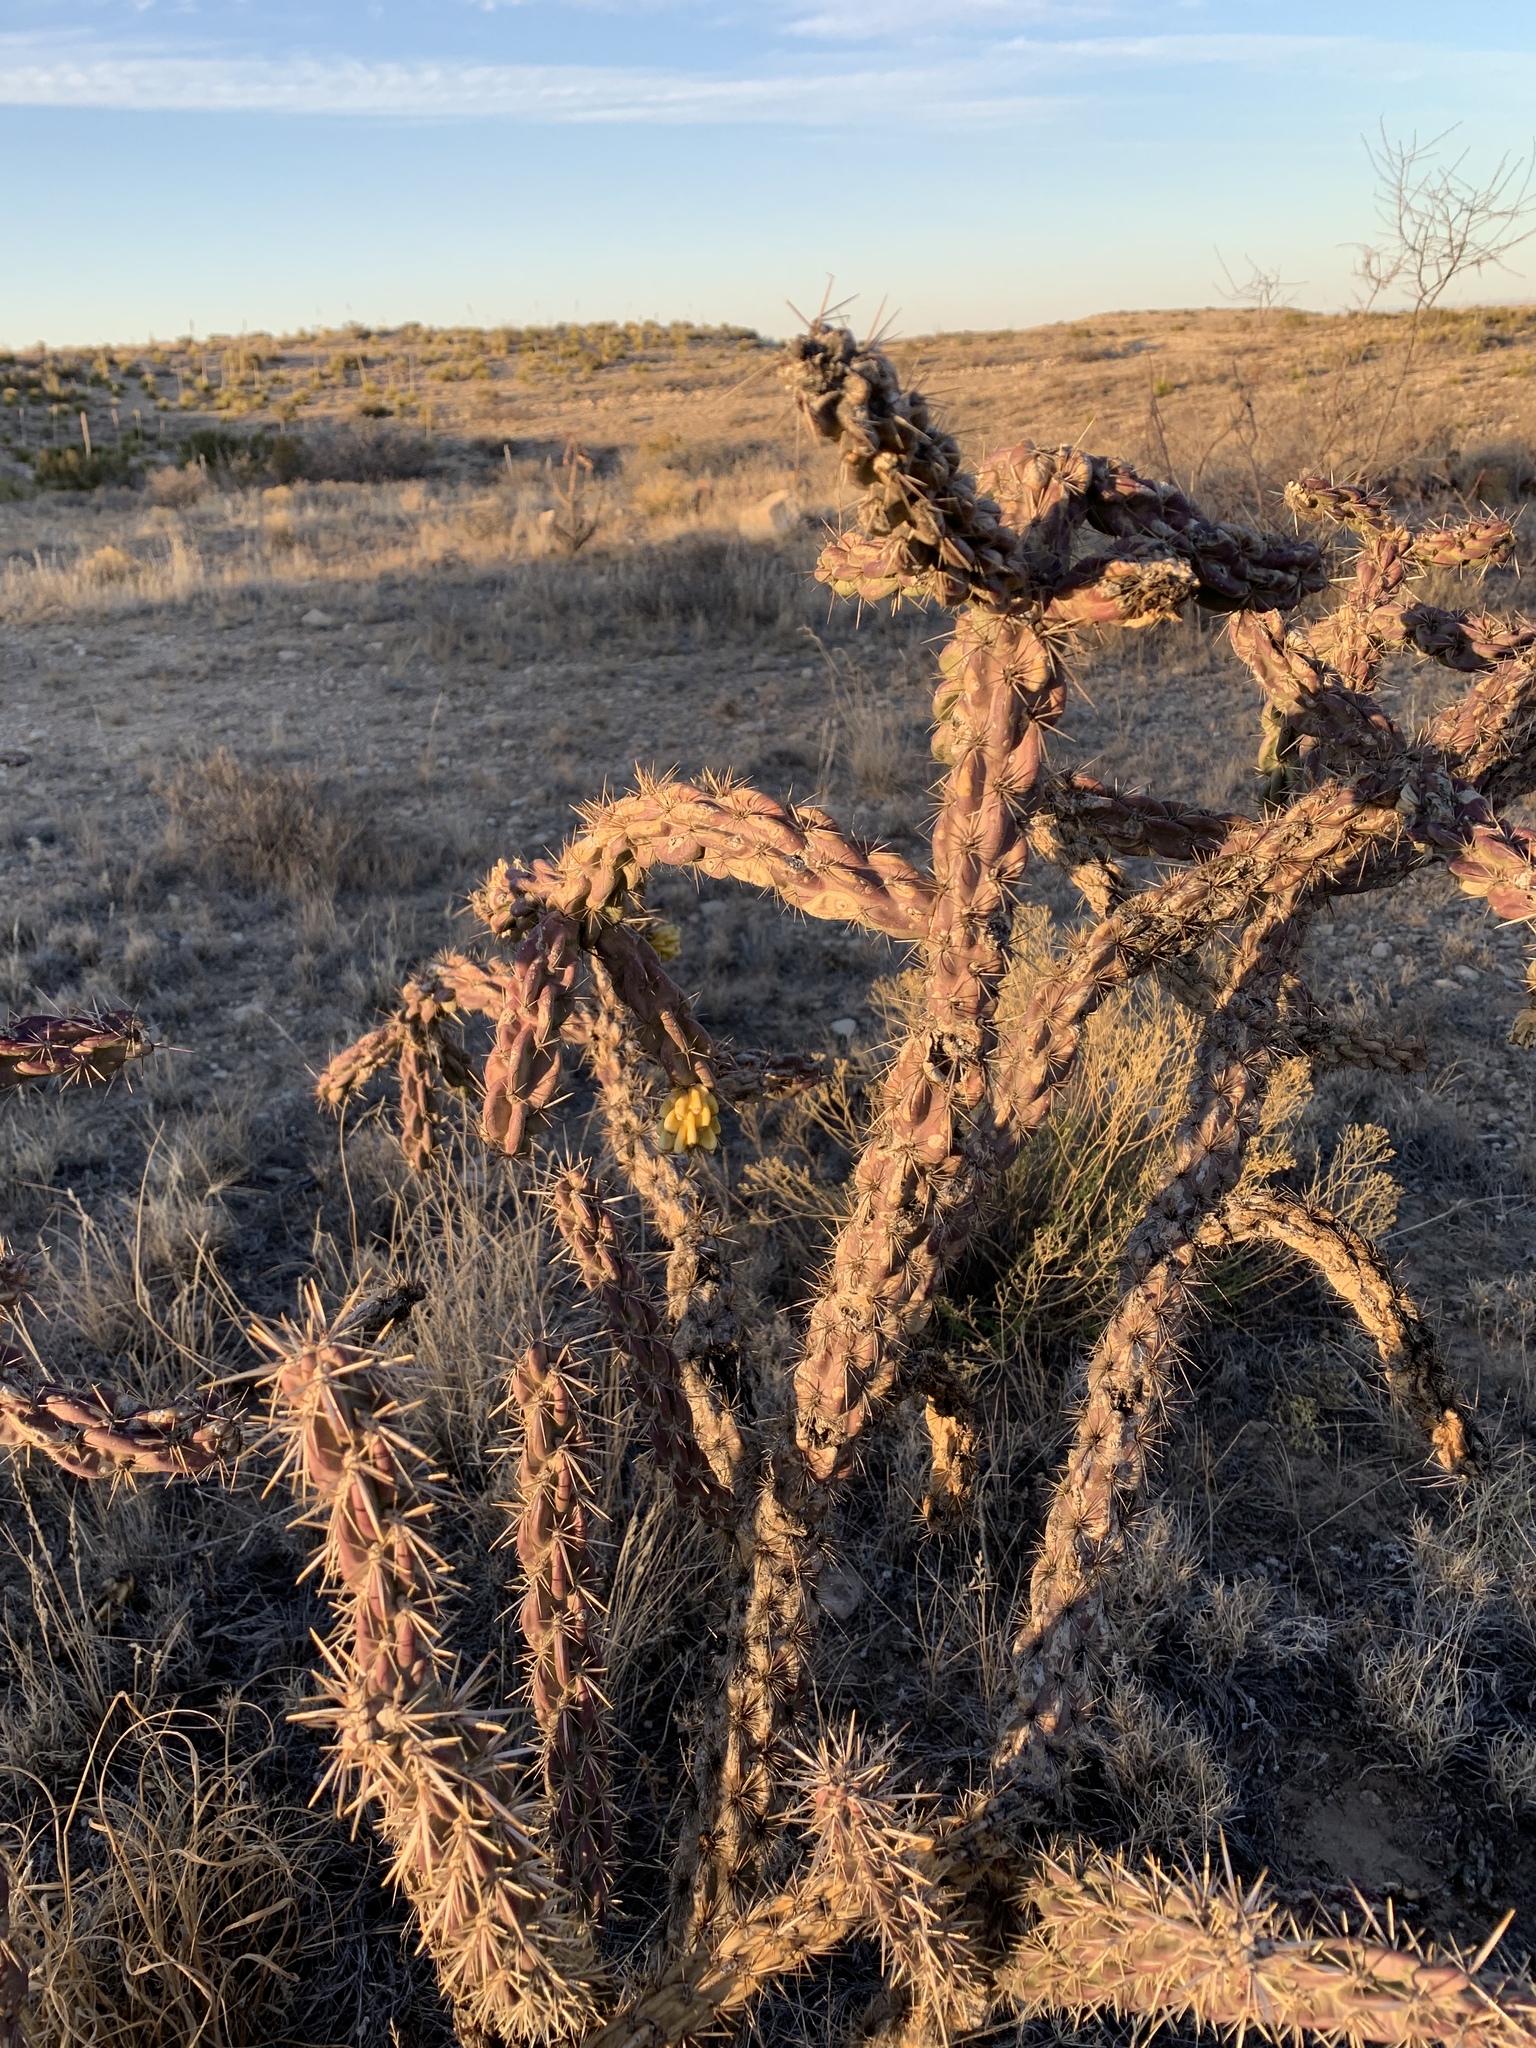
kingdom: Plantae
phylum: Tracheophyta
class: Magnoliopsida
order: Caryophyllales
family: Cactaceae
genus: Cylindropuntia
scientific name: Cylindropuntia imbricata
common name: Candelabrum cactus
